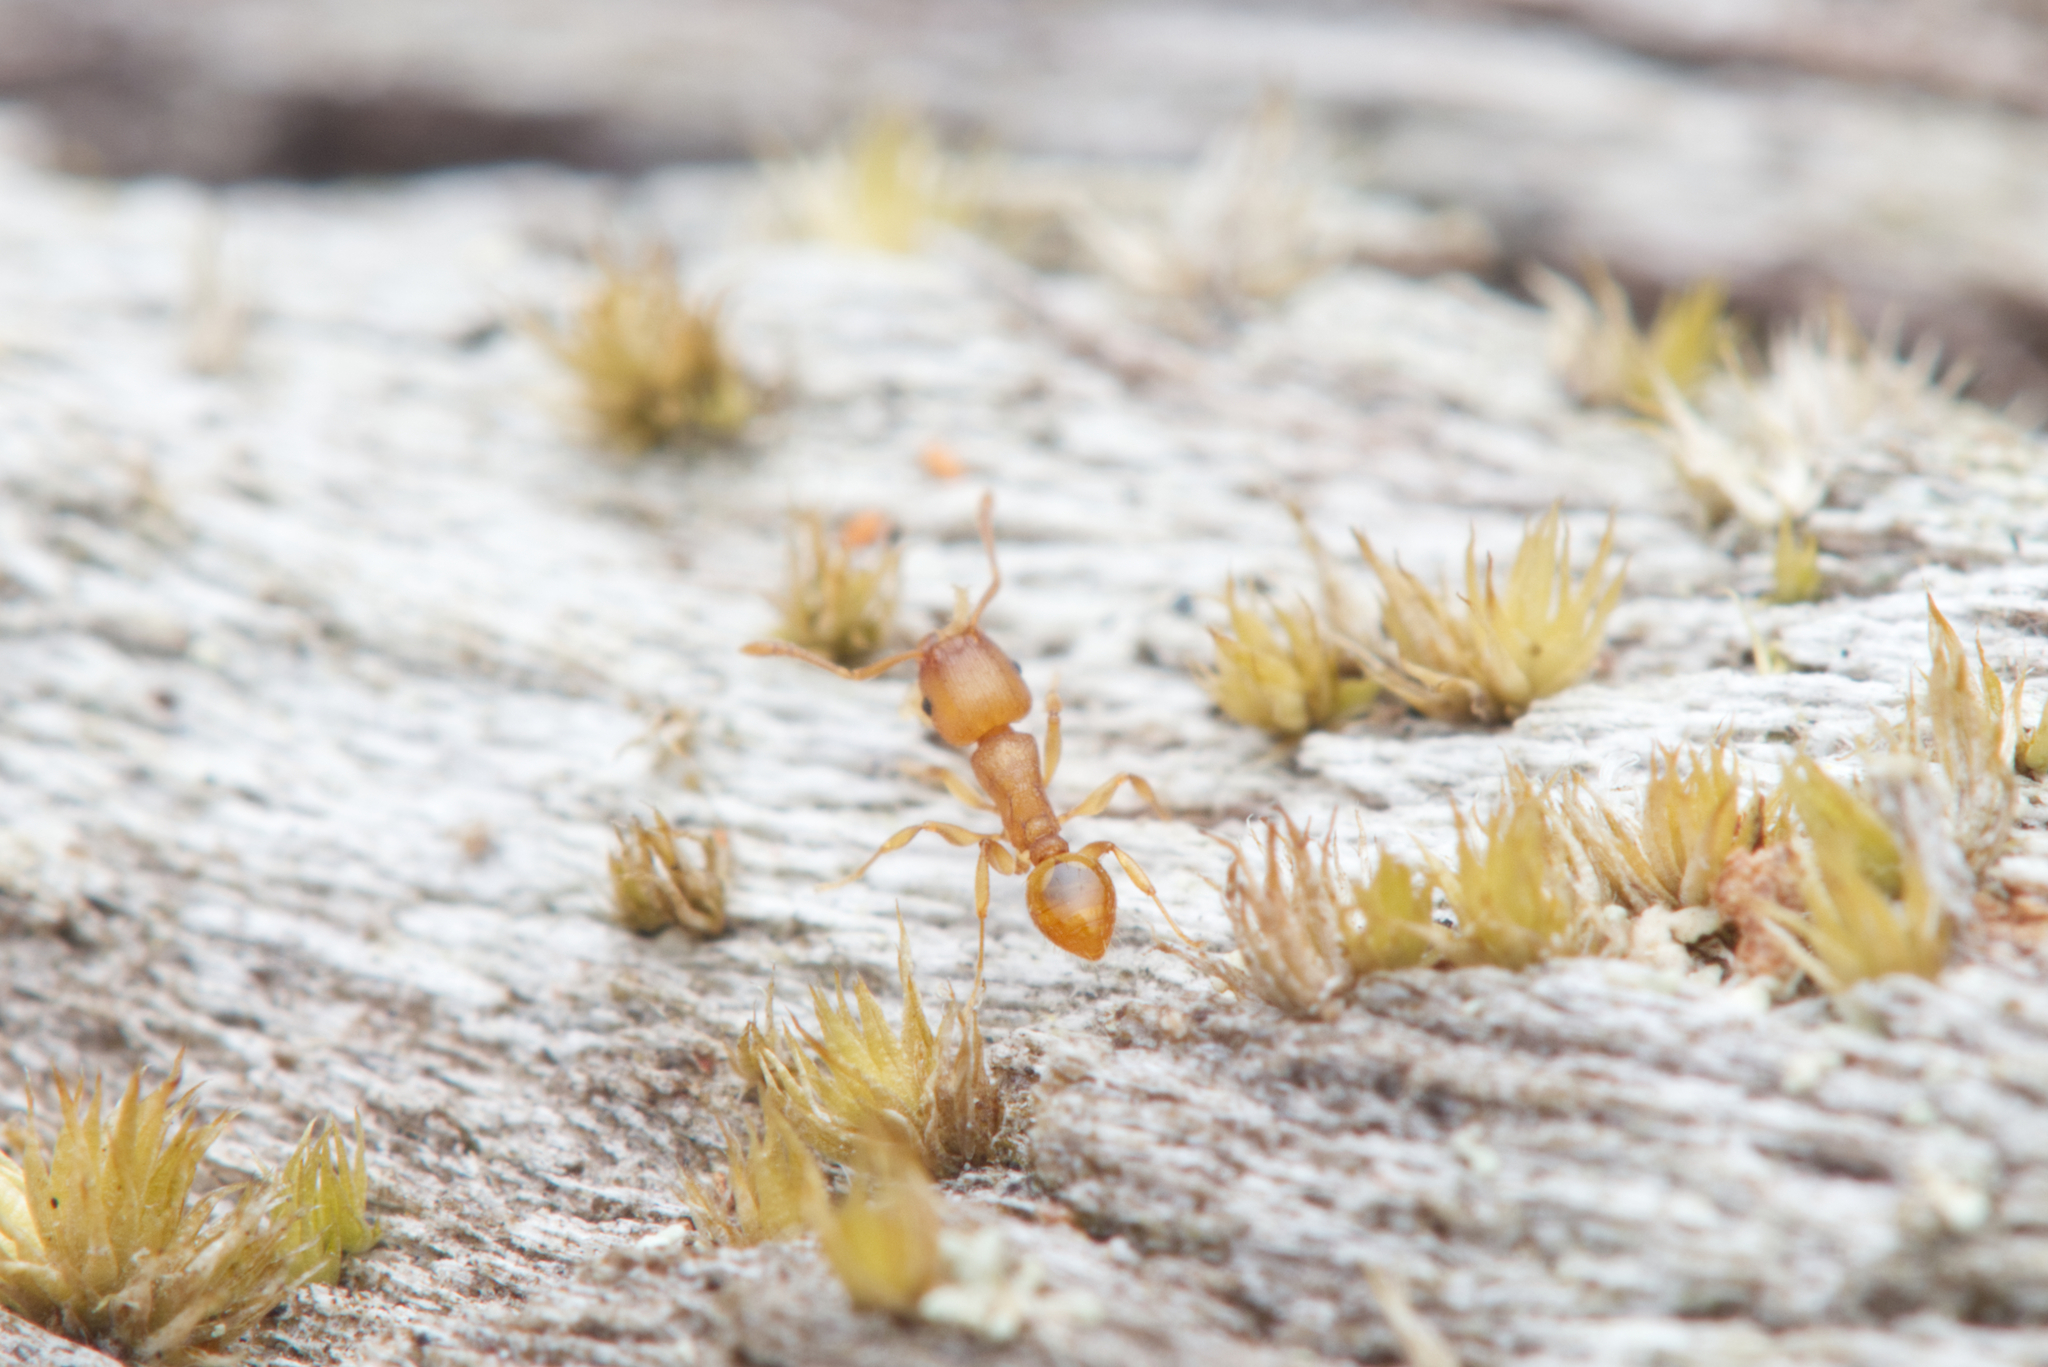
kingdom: Animalia
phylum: Arthropoda
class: Insecta
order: Hymenoptera
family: Formicidae
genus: Tetramorium
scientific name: Tetramorium simillimum
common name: Ant
